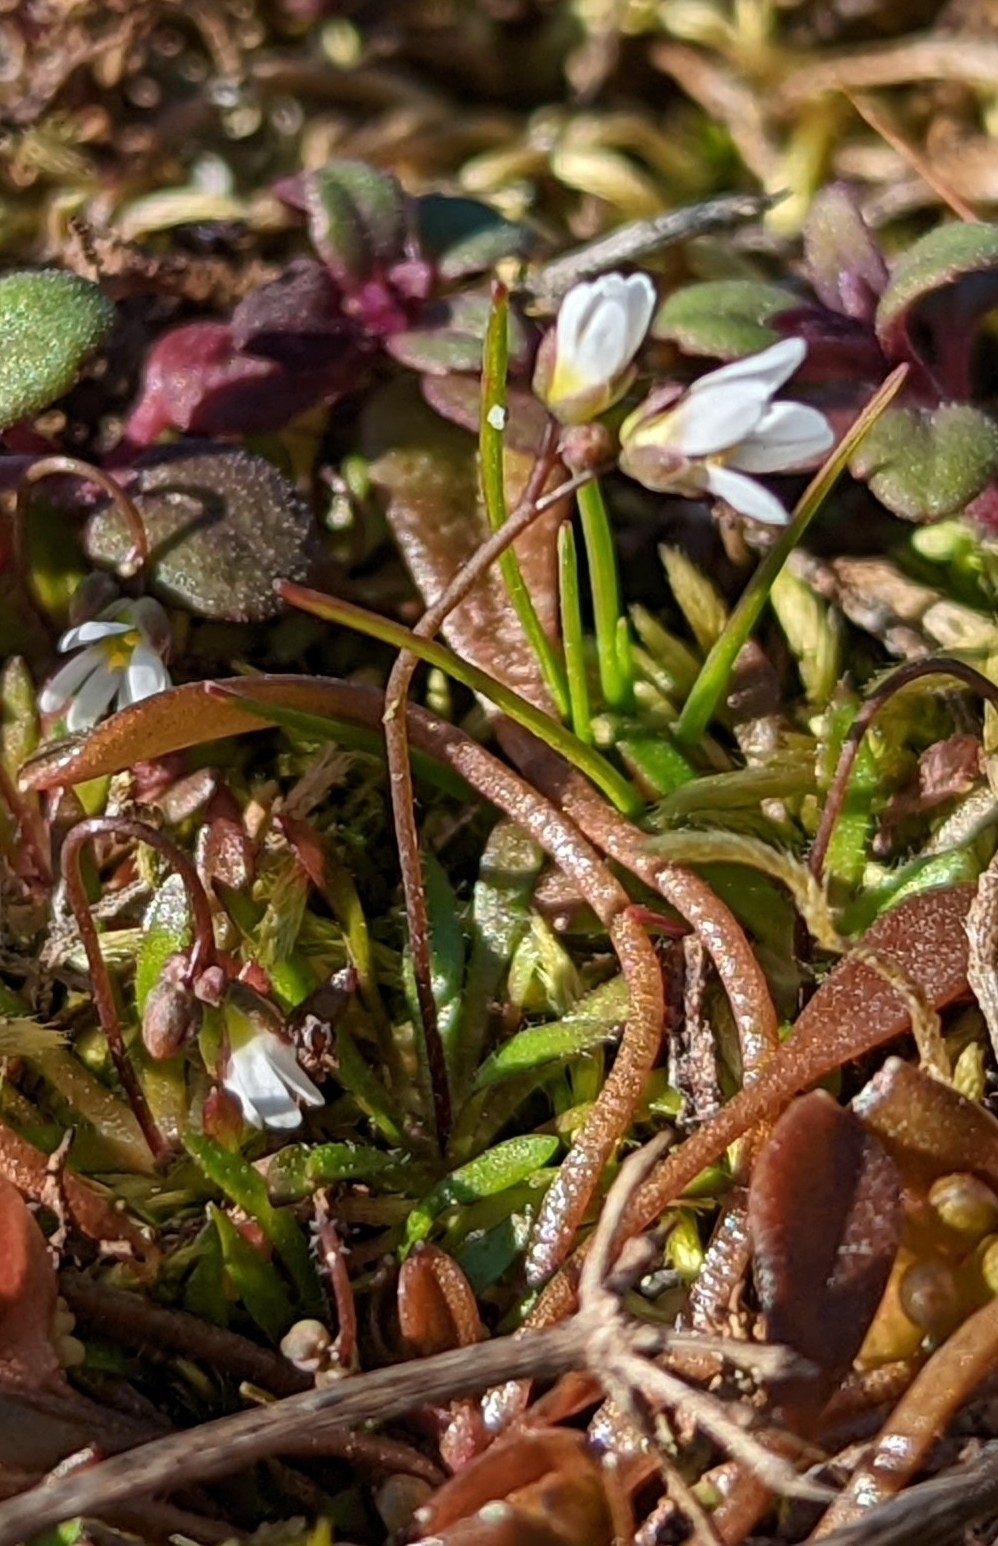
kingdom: Plantae
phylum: Tracheophyta
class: Magnoliopsida
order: Brassicales
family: Brassicaceae
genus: Draba
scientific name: Draba verna
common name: Spring draba
